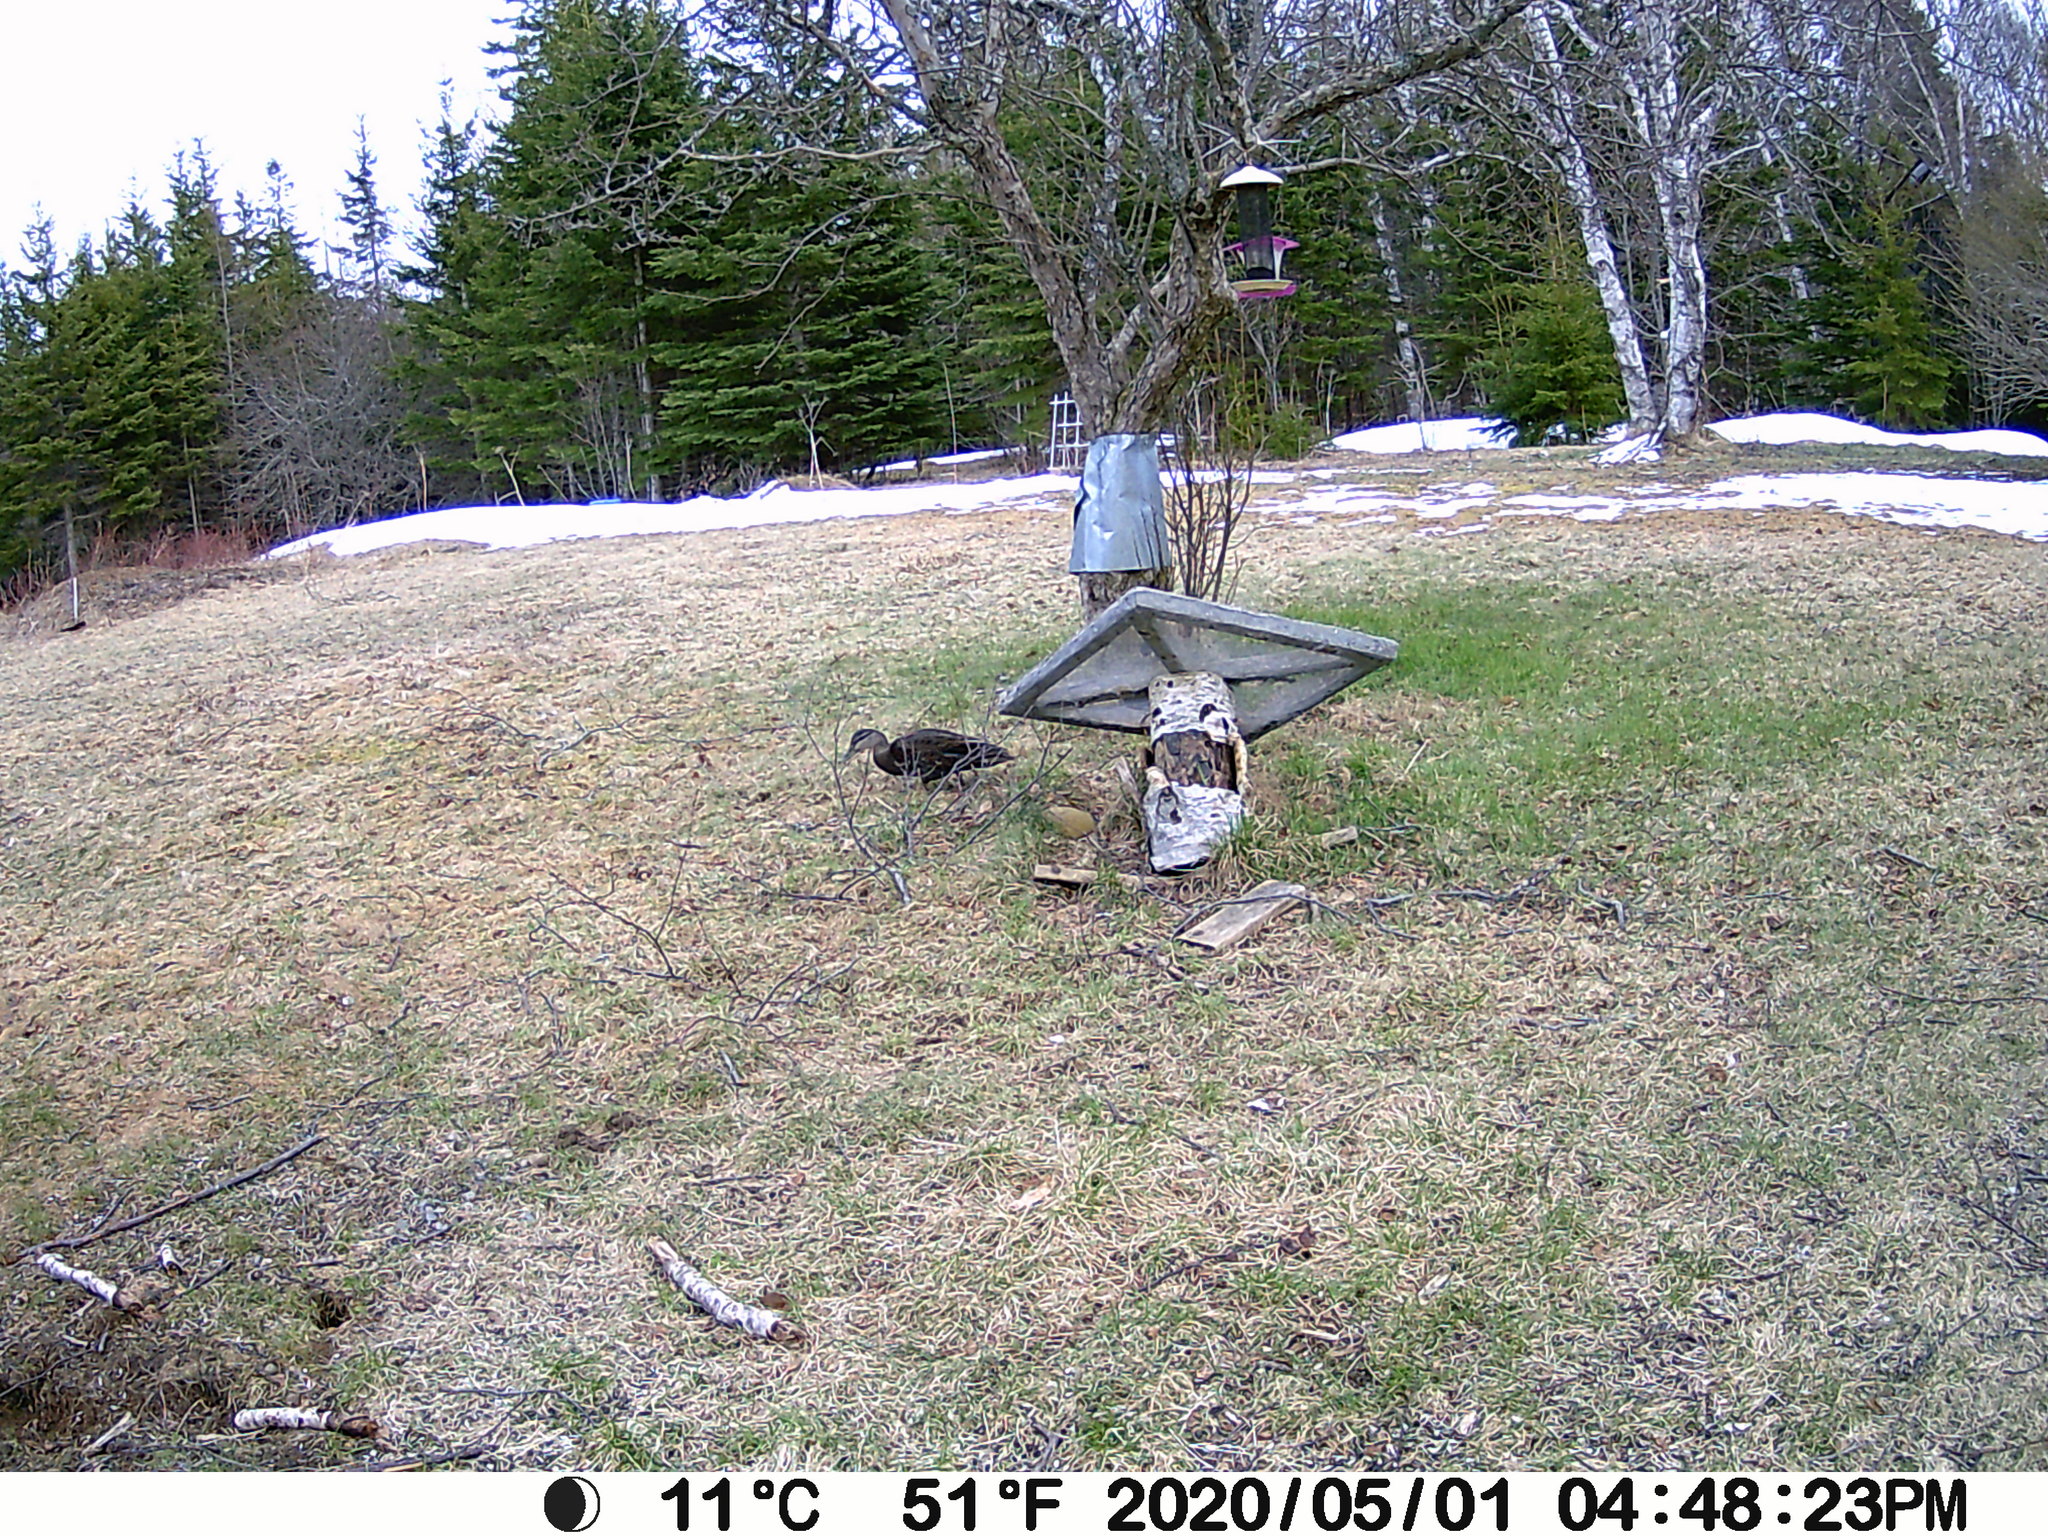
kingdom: Animalia
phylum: Chordata
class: Aves
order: Anseriformes
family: Anatidae
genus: Anas
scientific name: Anas rubripes
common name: American black duck
